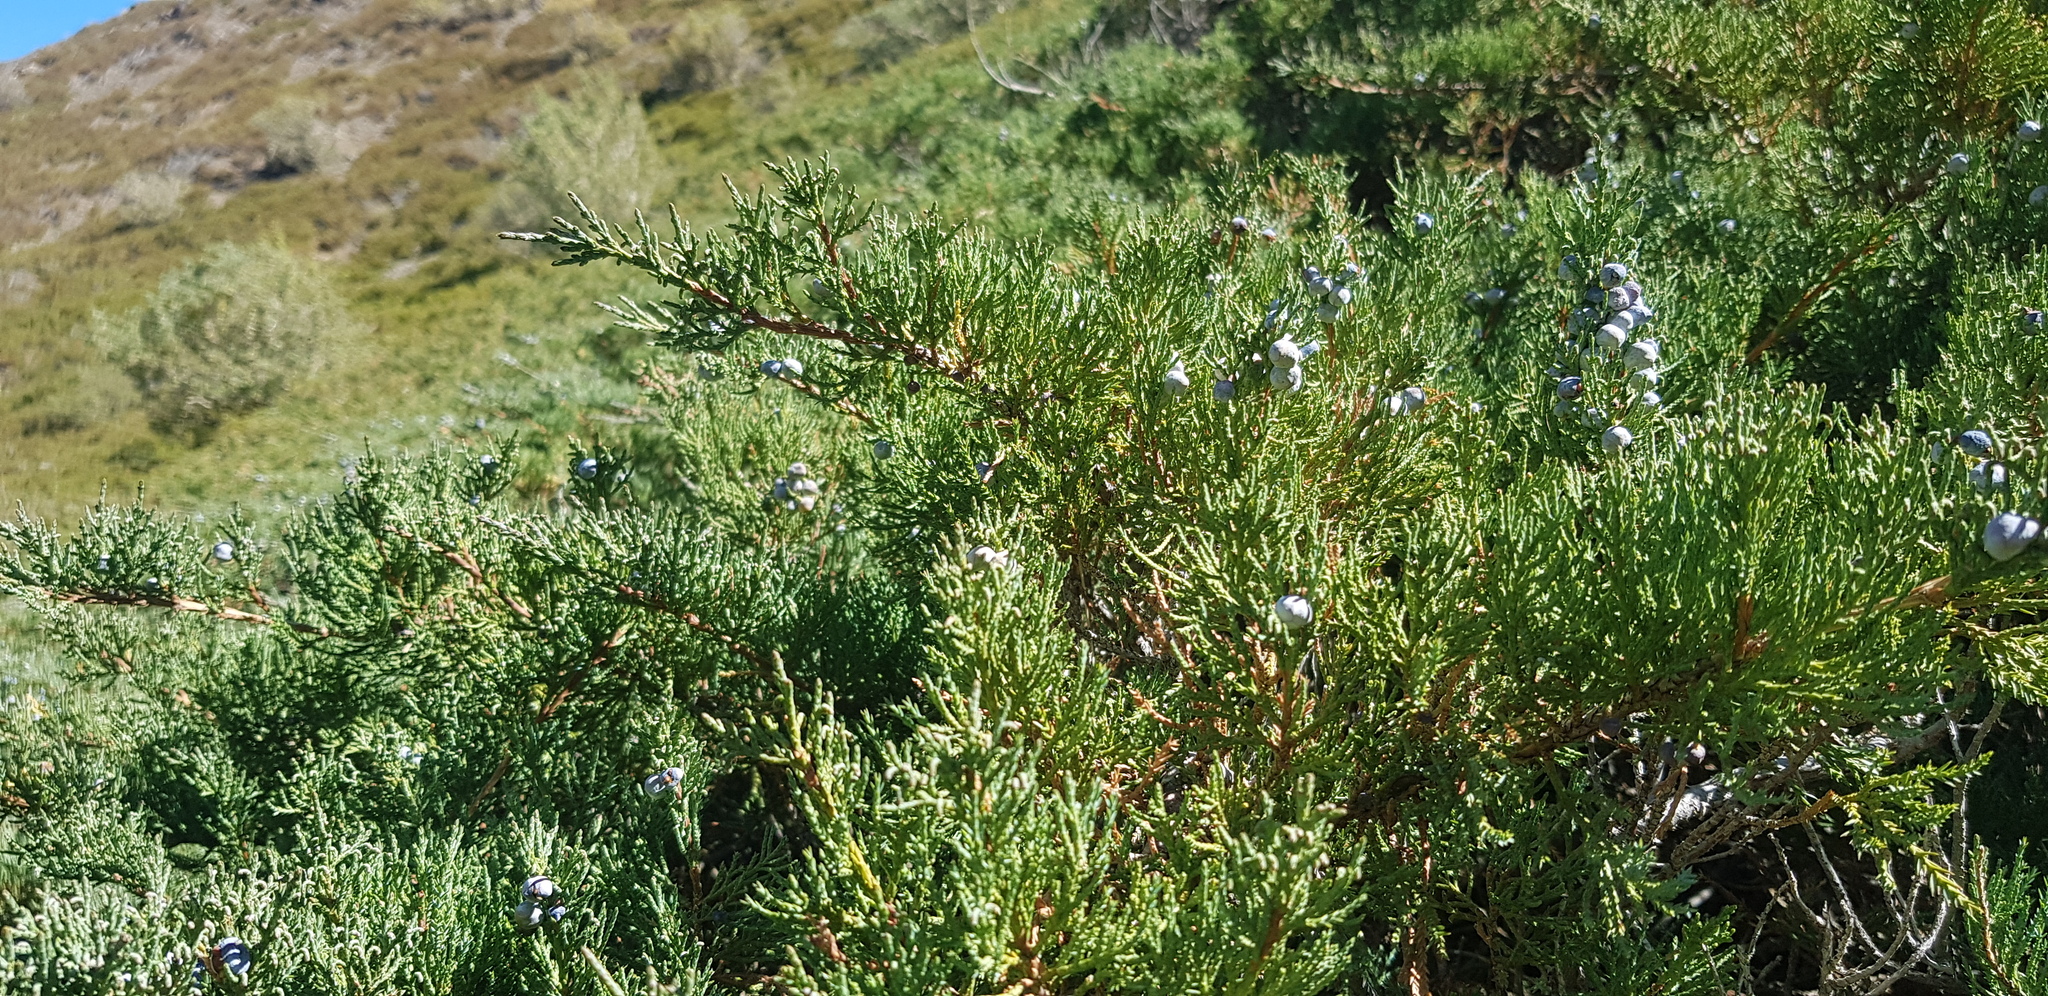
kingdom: Plantae
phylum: Tracheophyta
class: Pinopsida
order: Pinales
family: Cupressaceae
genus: Juniperus
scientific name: Juniperus sabina
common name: Savin
